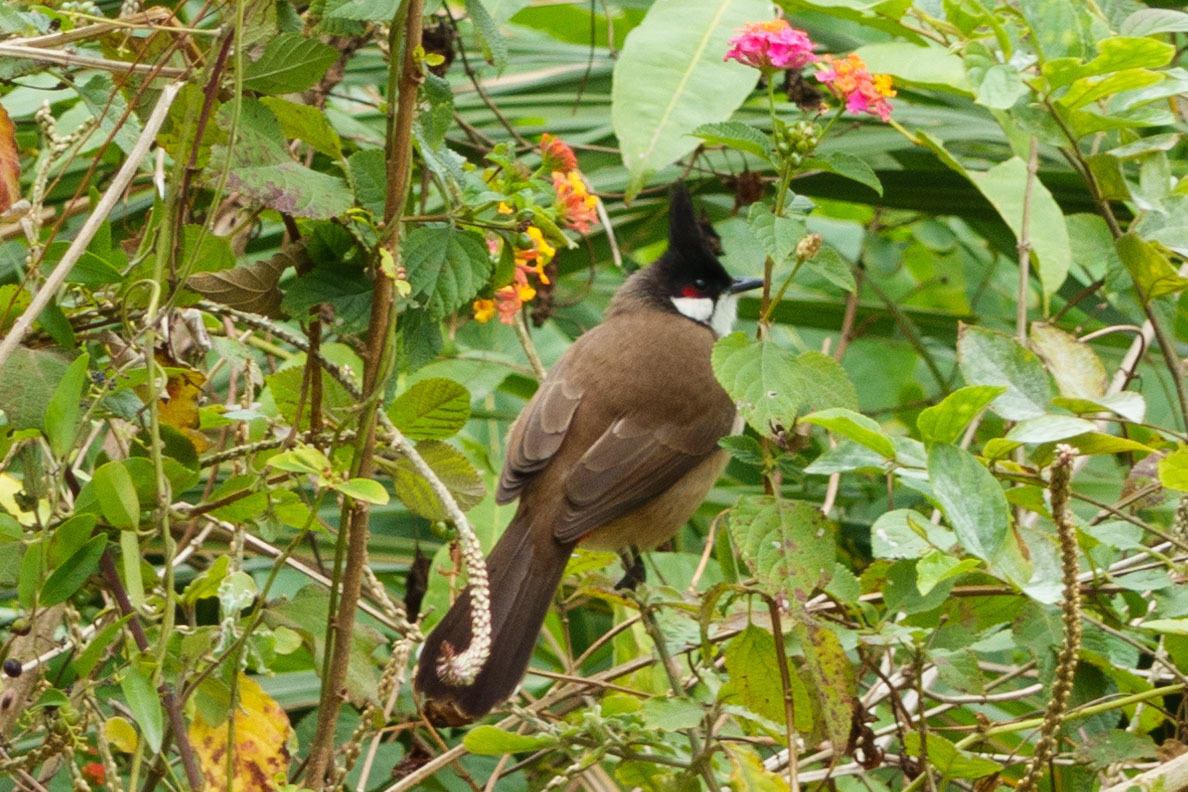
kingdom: Animalia
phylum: Chordata
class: Aves
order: Passeriformes
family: Pycnonotidae
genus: Pycnonotus
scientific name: Pycnonotus jocosus
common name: Red-whiskered bulbul
